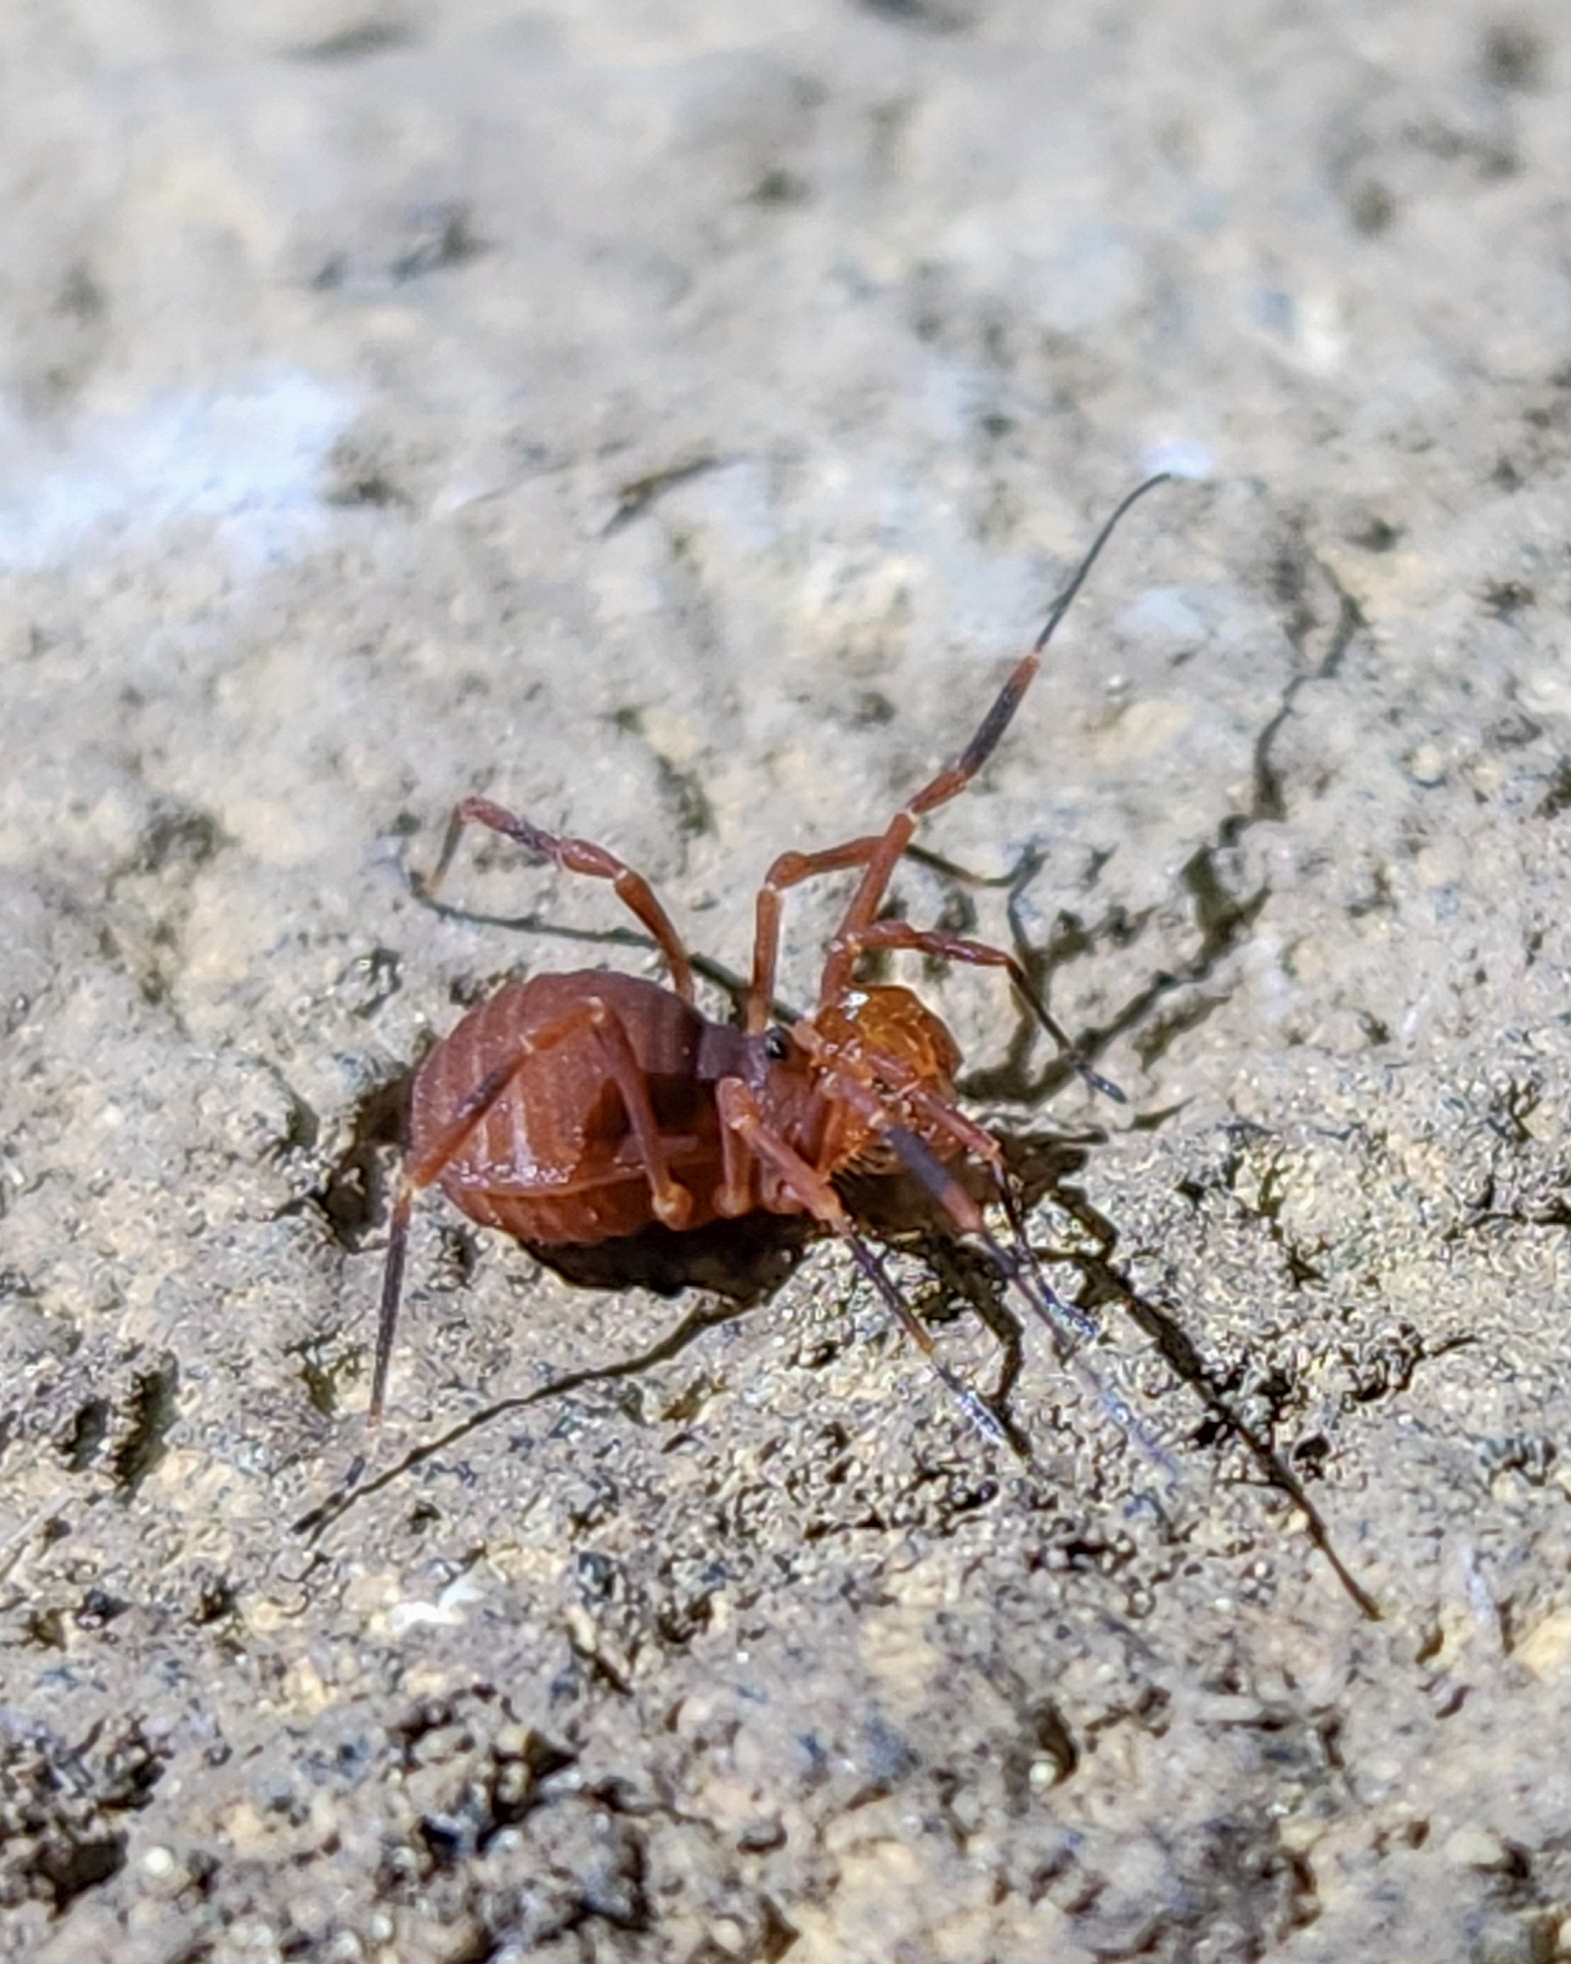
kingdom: Animalia
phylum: Arthropoda
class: Arachnida
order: Opiliones
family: Paranonychidae
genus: Sclerobunus
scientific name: Sclerobunus nondimorphicus
